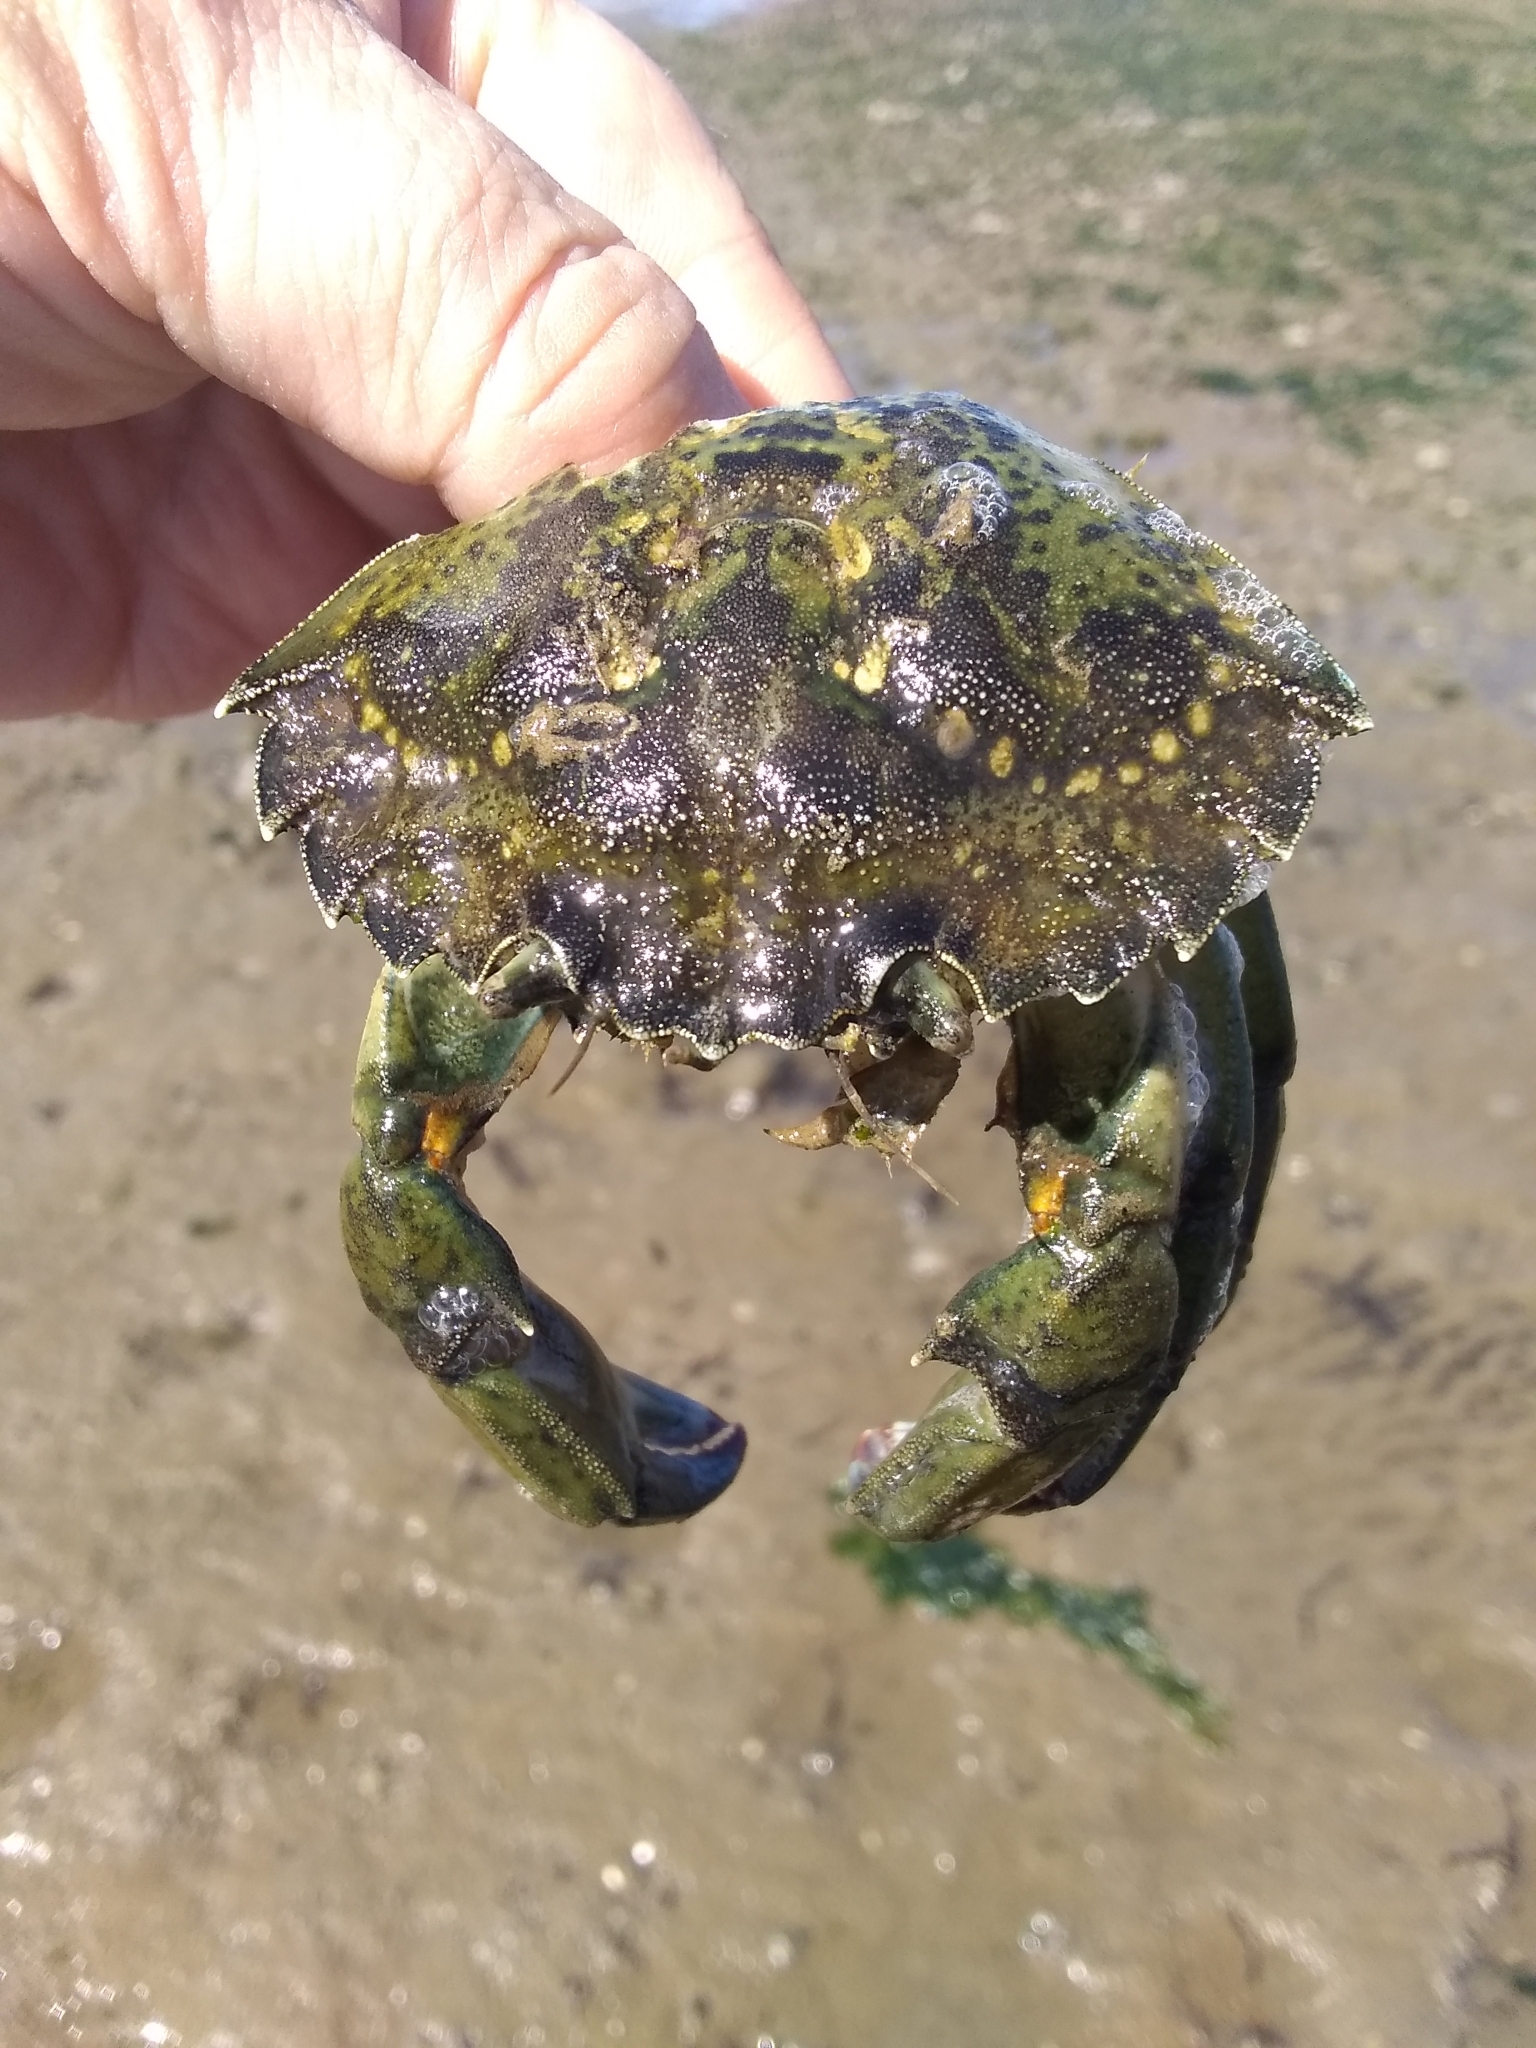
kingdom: Animalia
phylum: Arthropoda
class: Malacostraca
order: Decapoda
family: Carcinidae
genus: Carcinus
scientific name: Carcinus maenas
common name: European green crab
